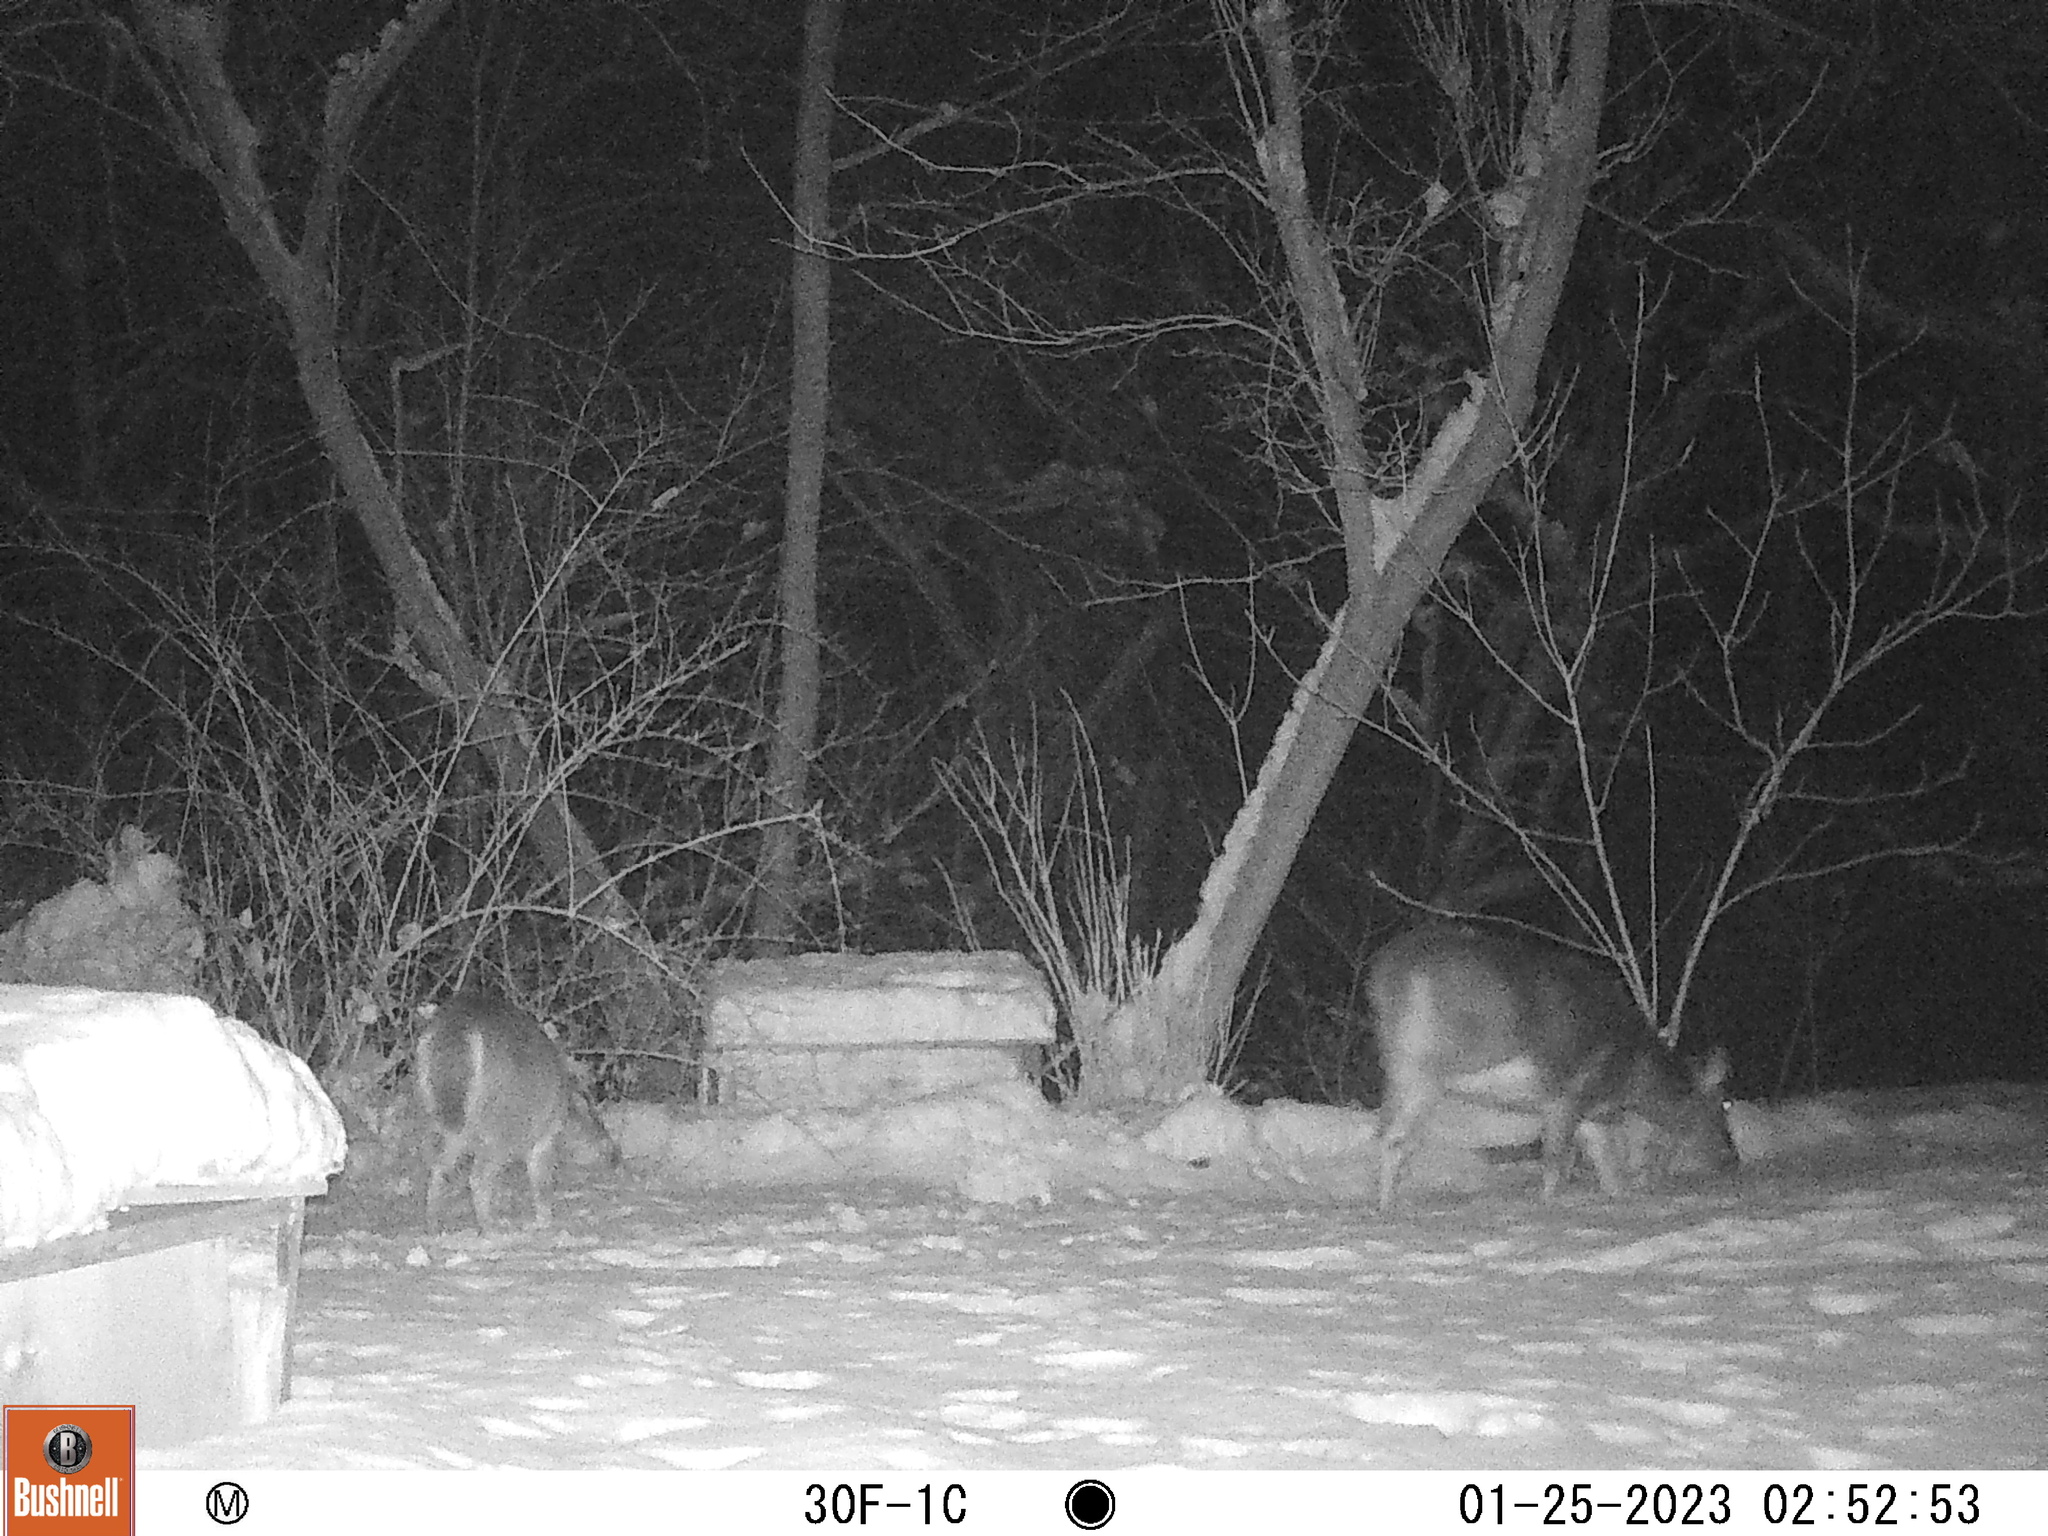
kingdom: Animalia
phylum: Chordata
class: Mammalia
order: Artiodactyla
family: Cervidae
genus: Odocoileus
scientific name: Odocoileus virginianus
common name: White-tailed deer
